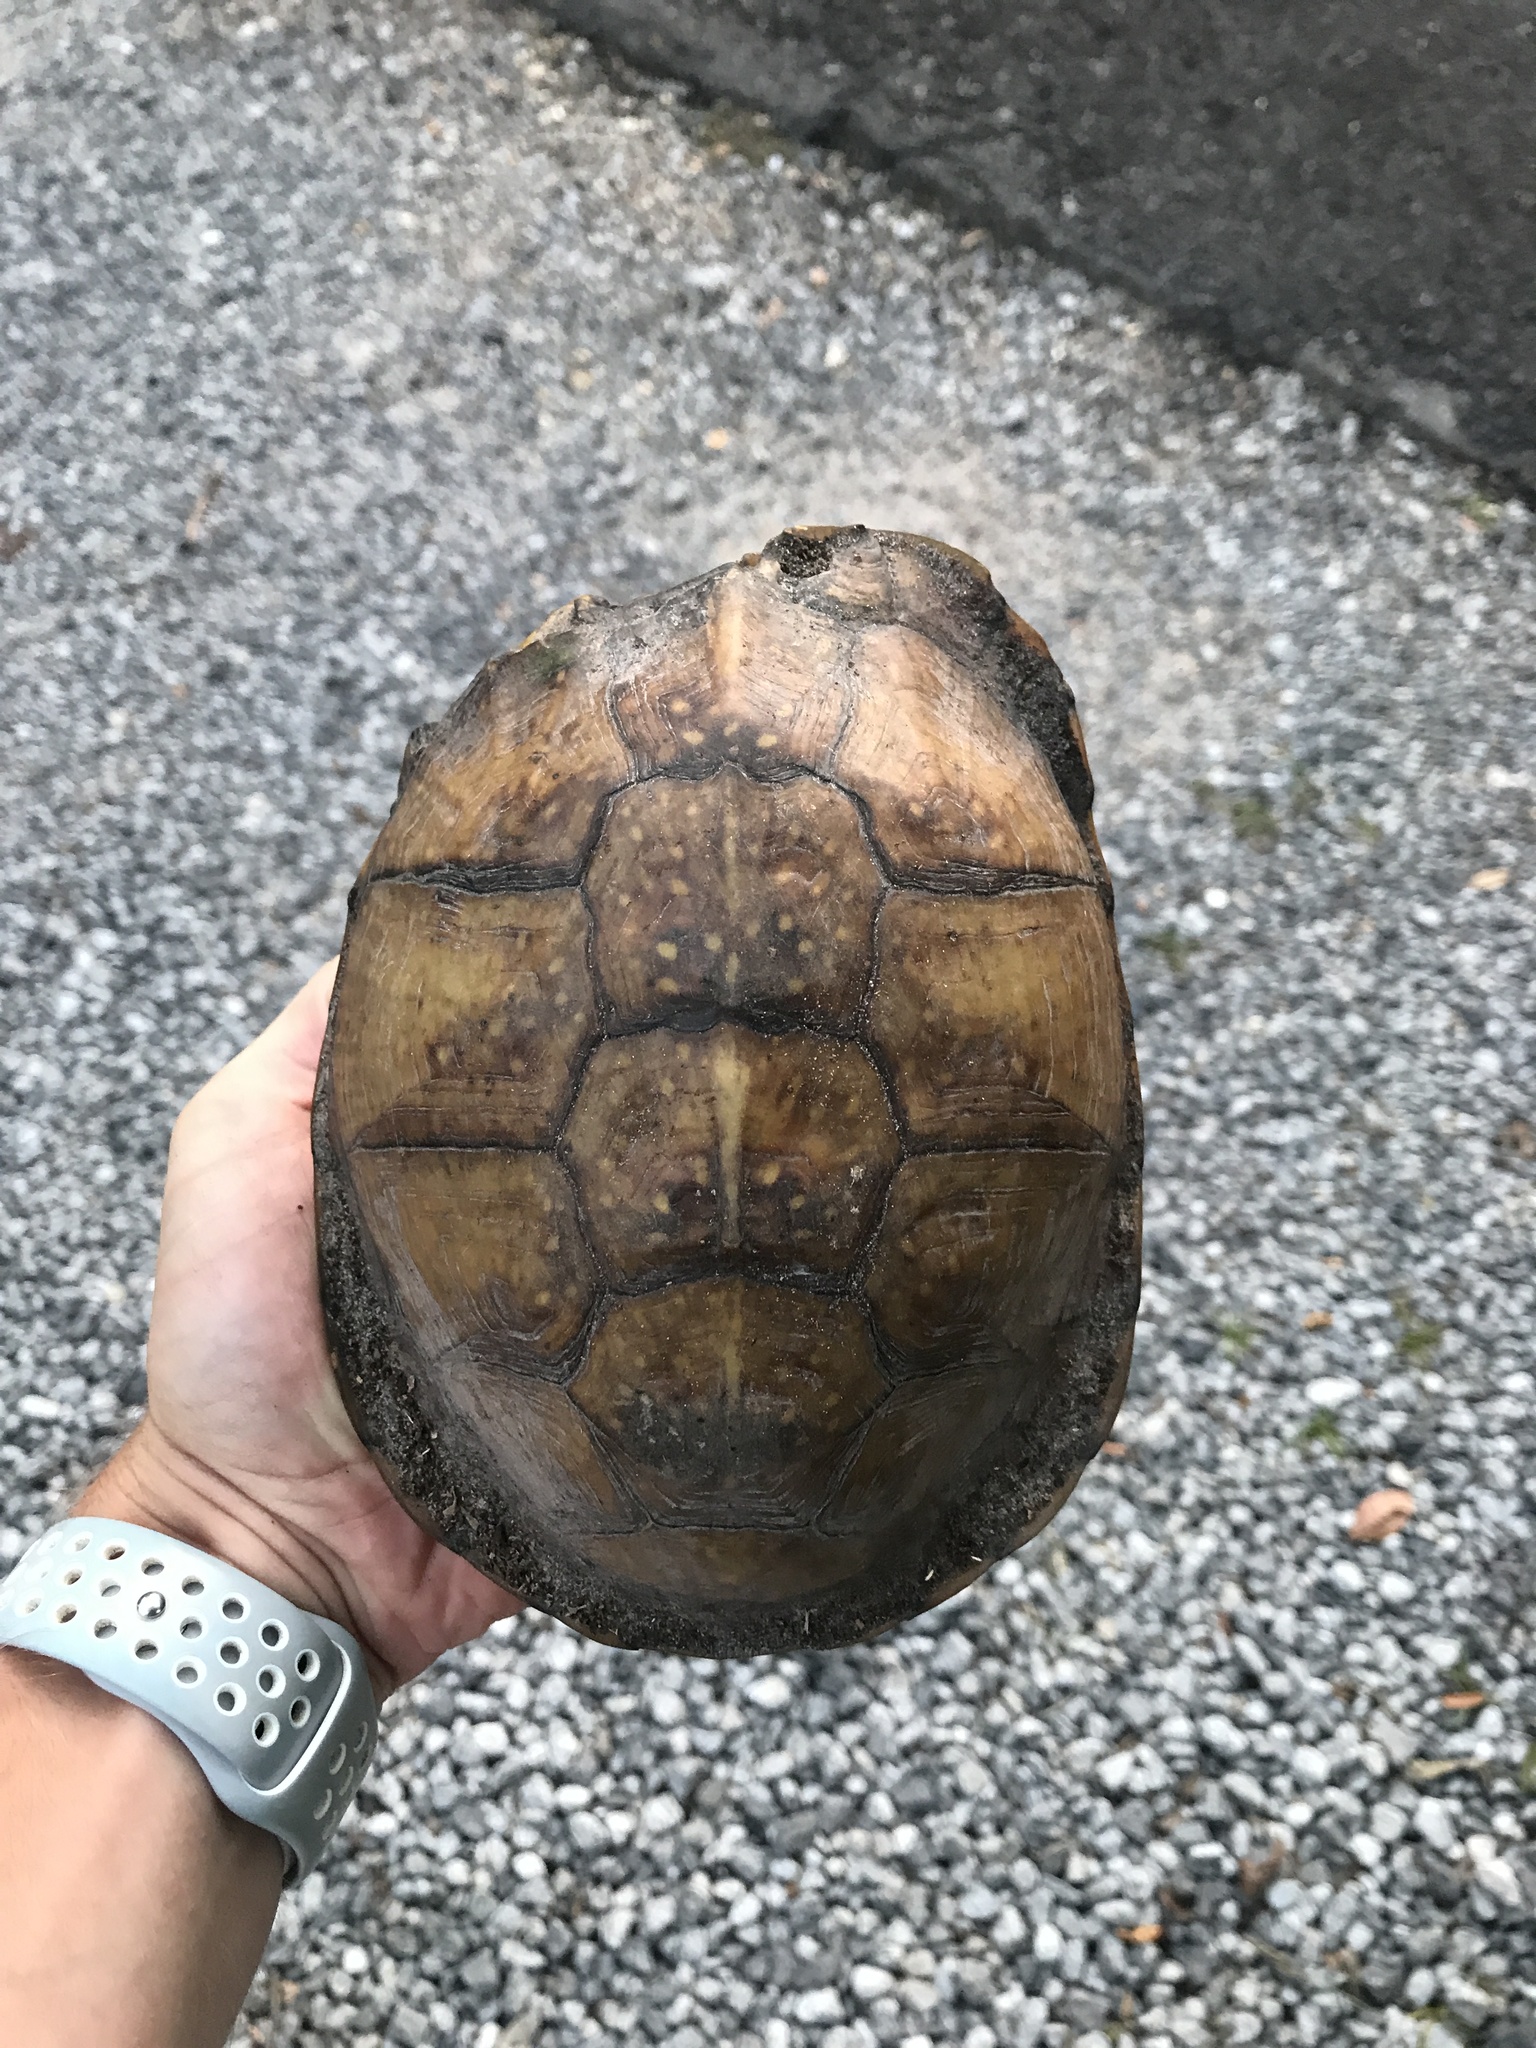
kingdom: Animalia
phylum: Chordata
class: Testudines
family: Emydidae
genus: Terrapene
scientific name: Terrapene carolina
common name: Common box turtle
